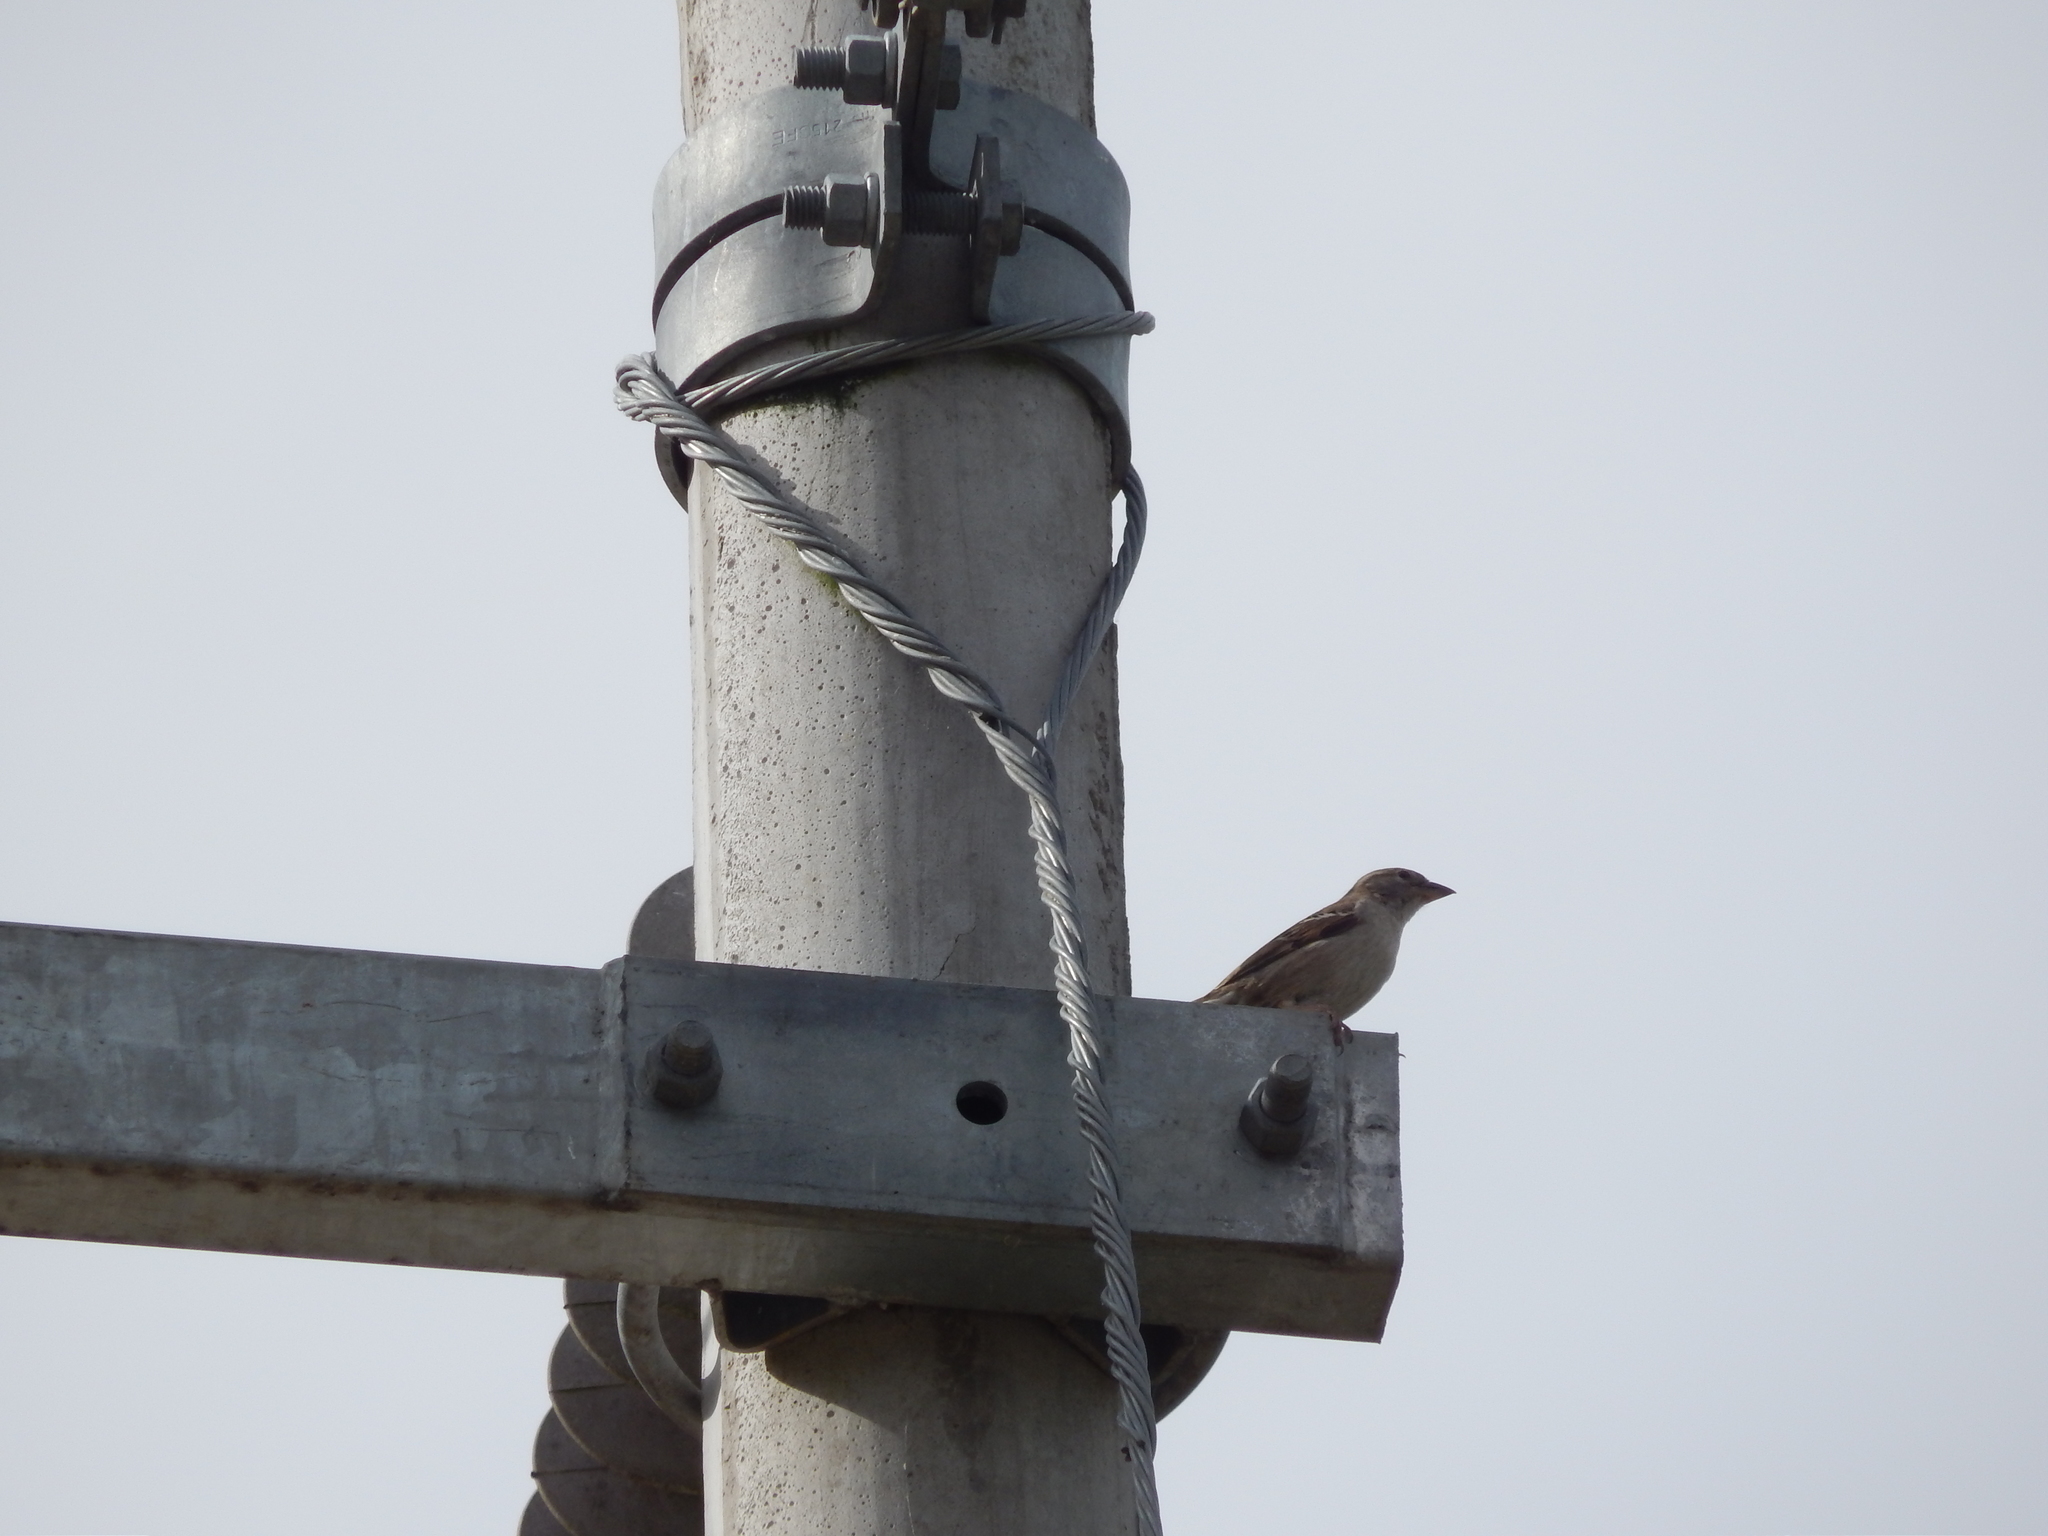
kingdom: Animalia
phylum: Chordata
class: Aves
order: Passeriformes
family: Passeridae
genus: Passer
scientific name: Passer domesticus
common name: House sparrow
